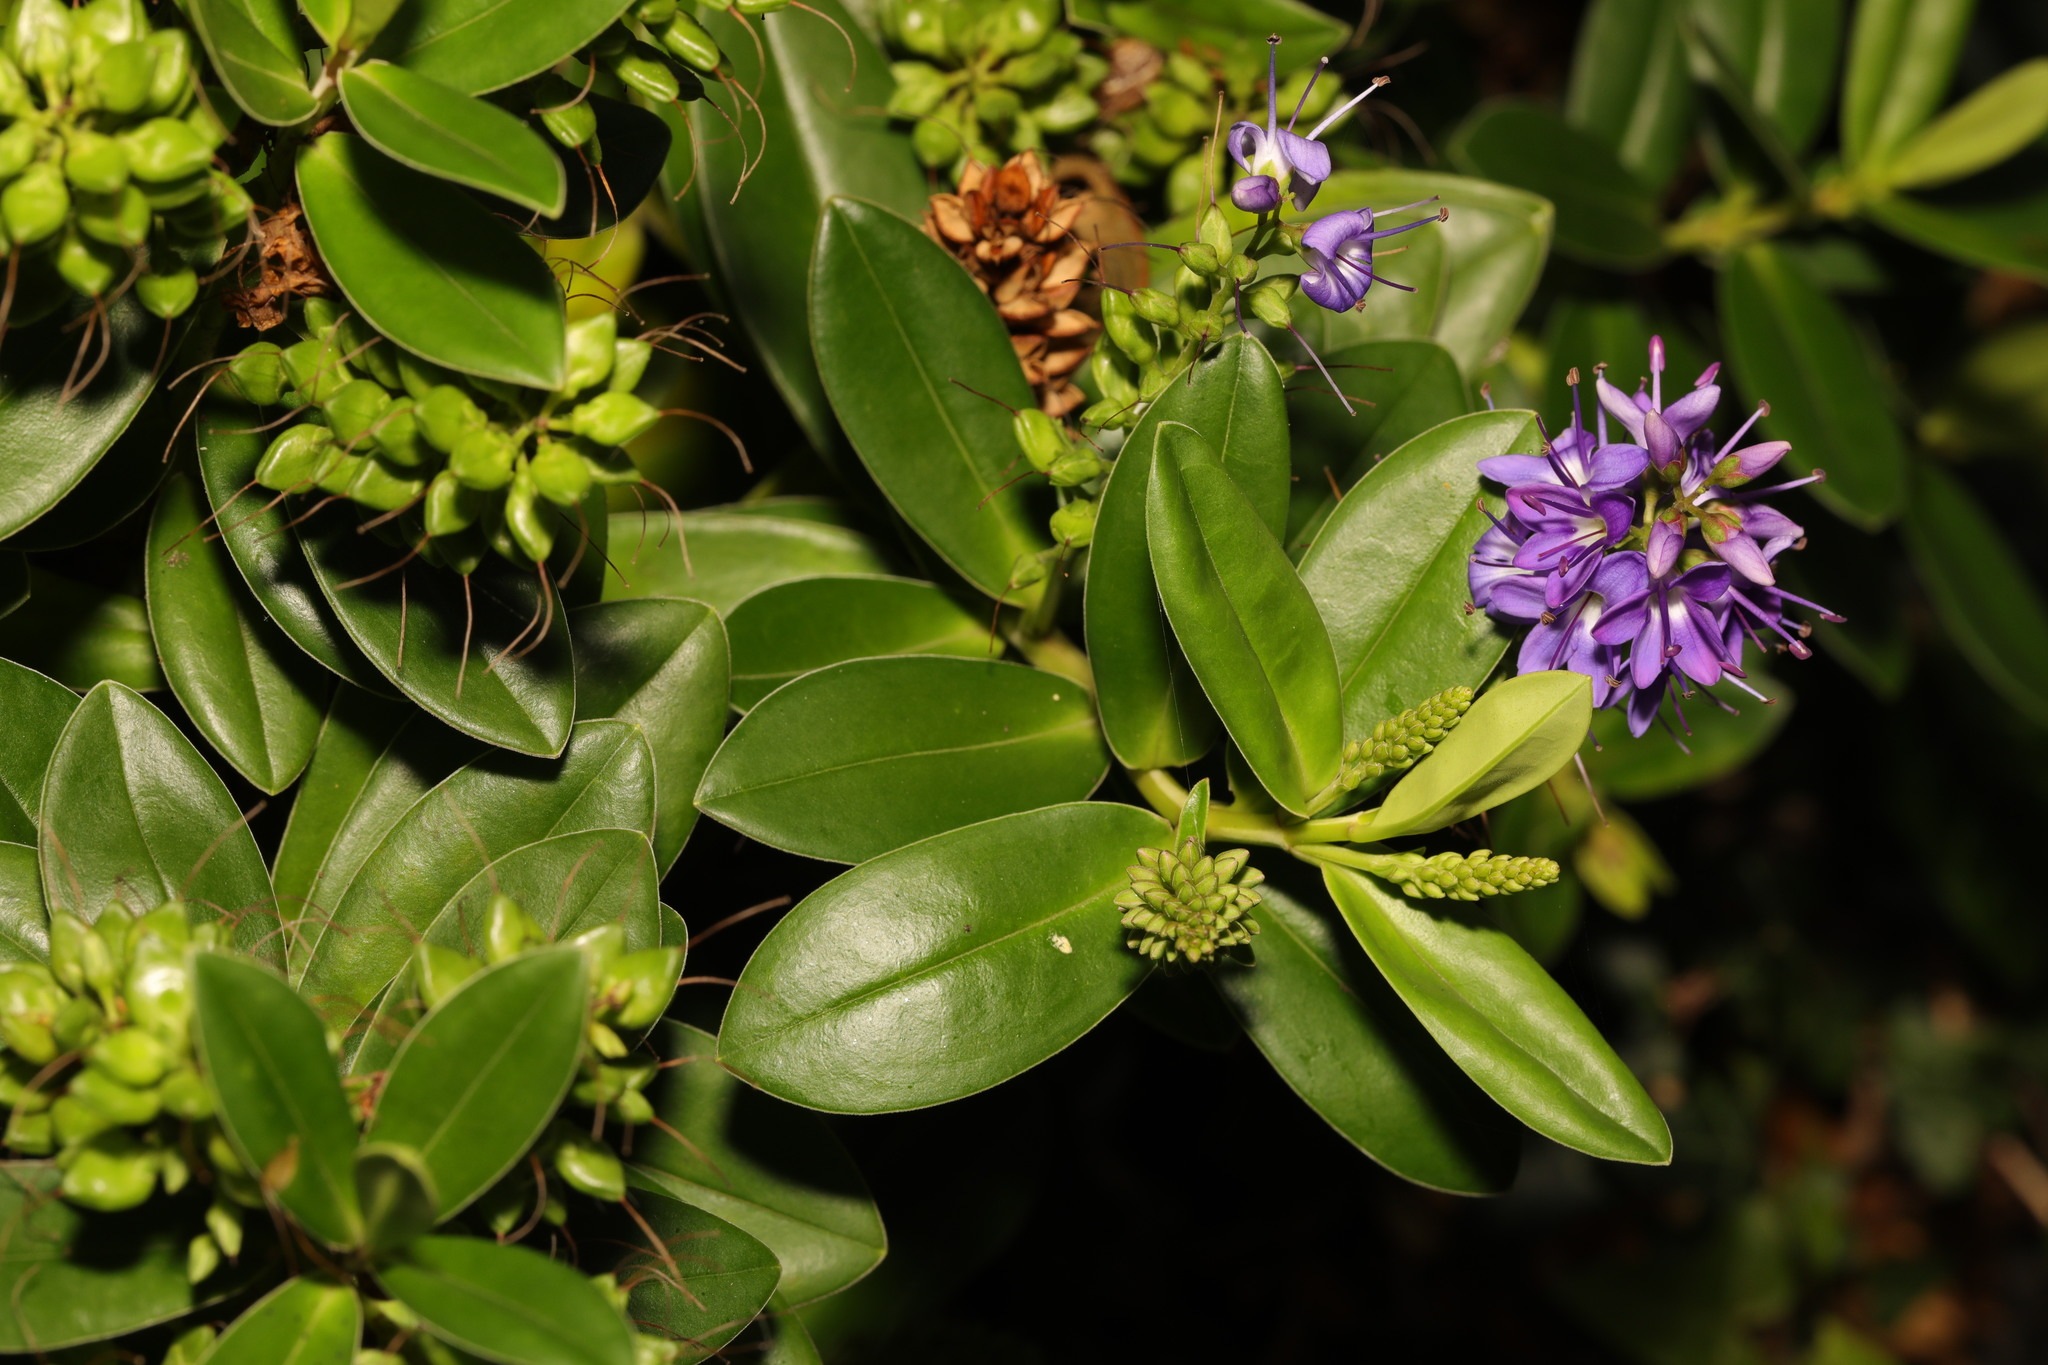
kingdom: Plantae
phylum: Tracheophyta
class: Magnoliopsida
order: Lamiales
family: Plantaginaceae
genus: Veronica
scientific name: Veronica franciscana
